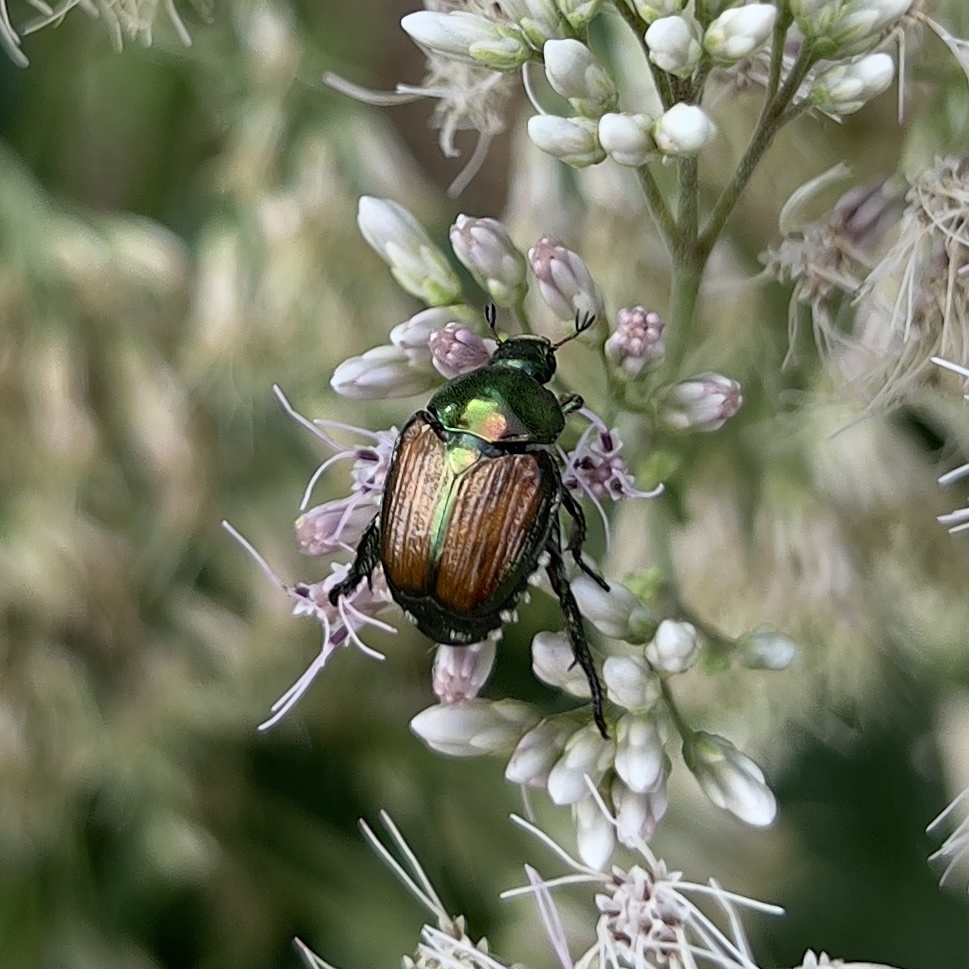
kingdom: Animalia
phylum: Arthropoda
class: Insecta
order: Coleoptera
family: Scarabaeidae
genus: Popillia
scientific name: Popillia japonica
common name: Japanese beetle
